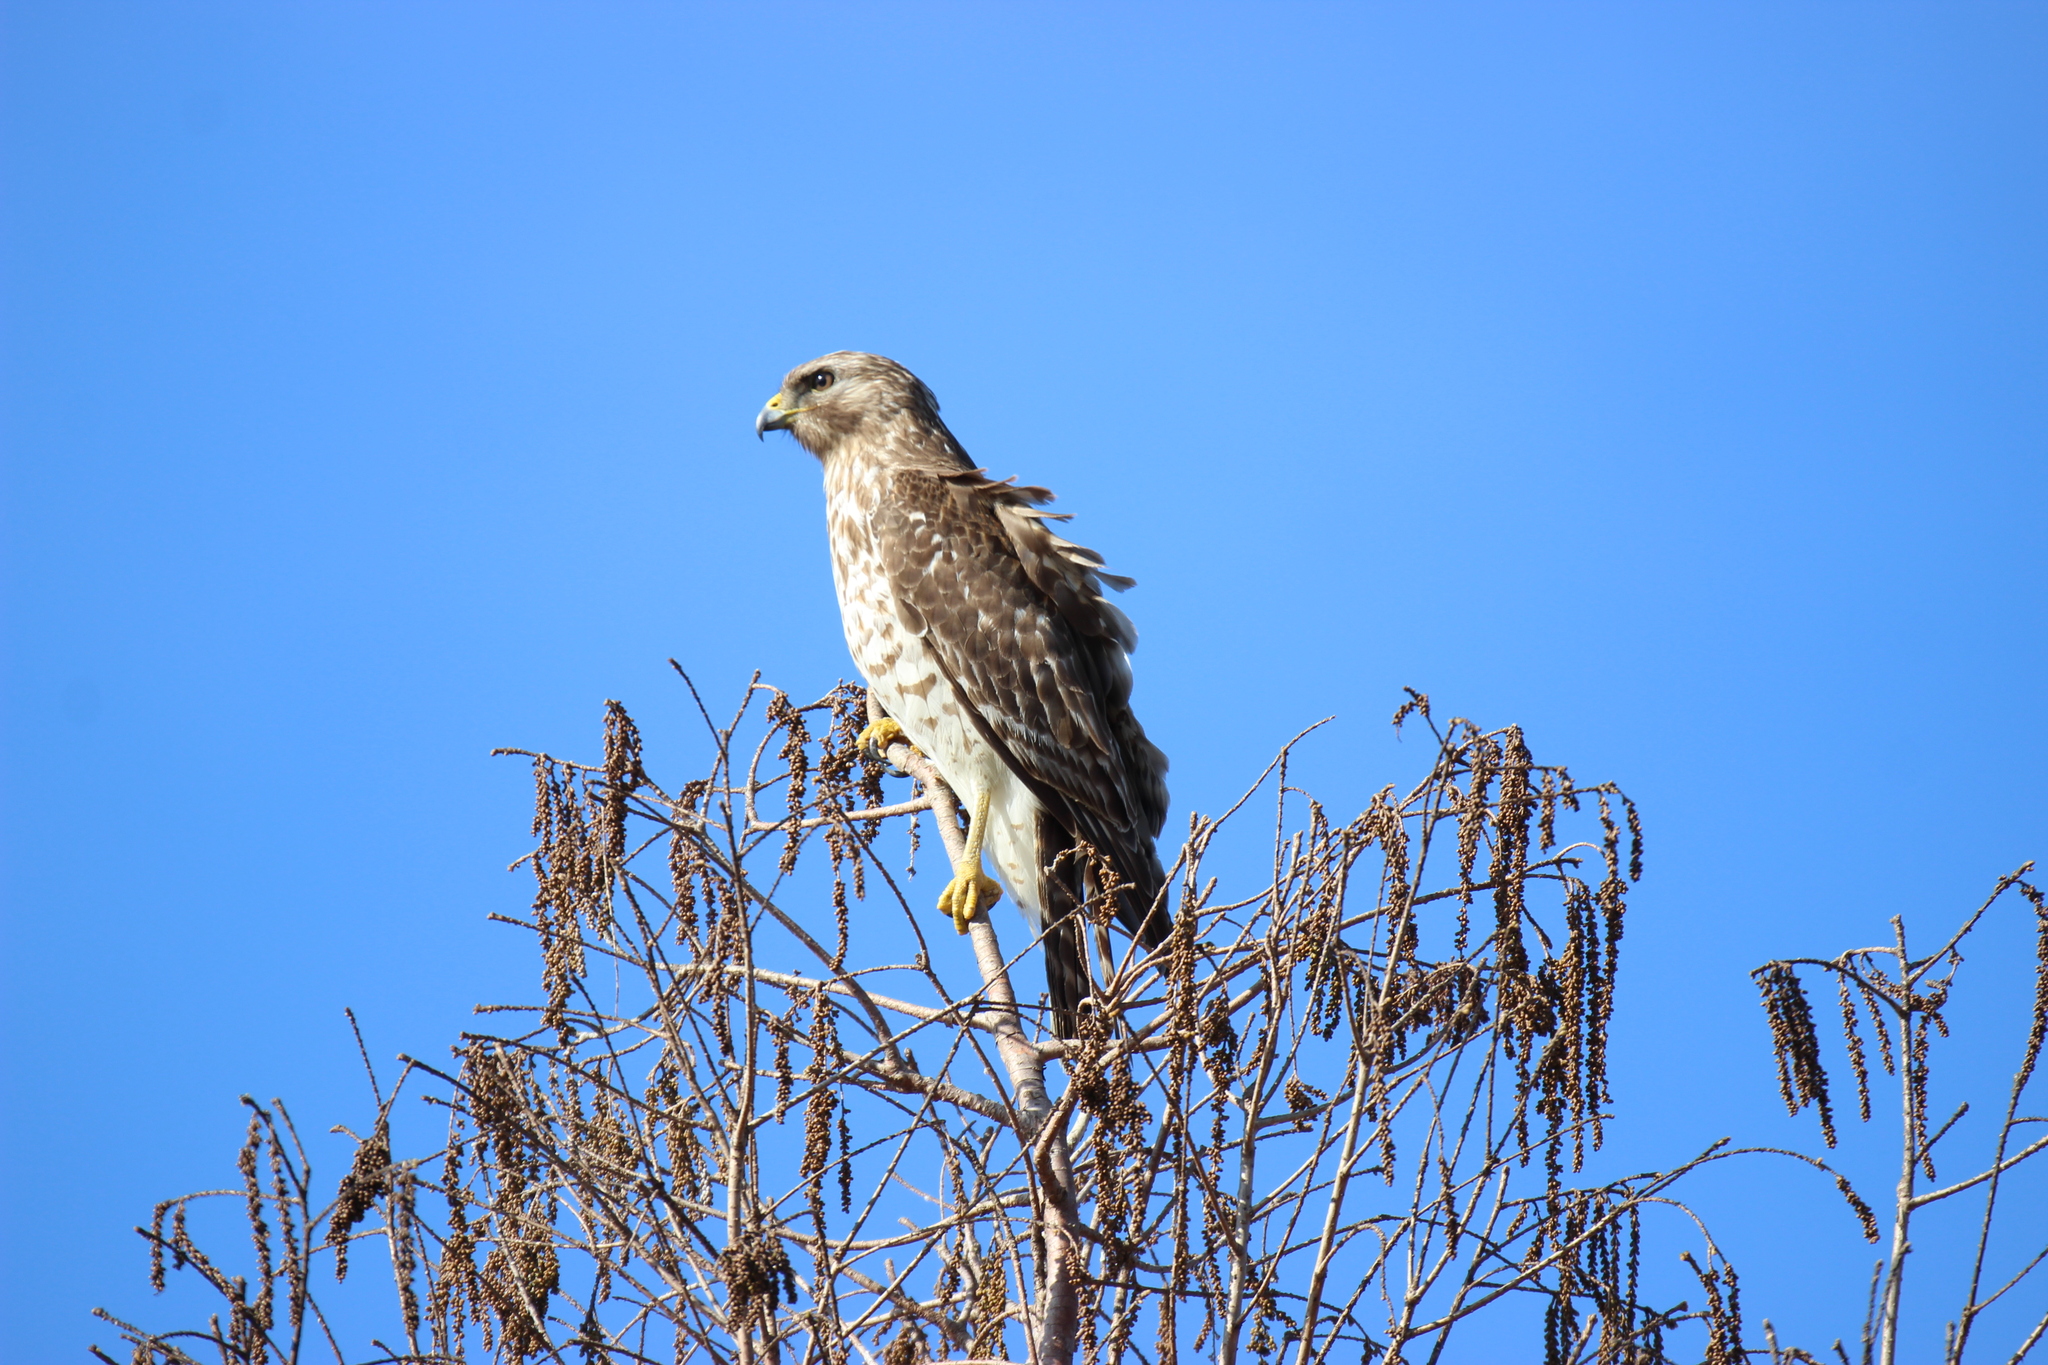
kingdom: Animalia
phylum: Chordata
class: Aves
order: Accipitriformes
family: Accipitridae
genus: Buteo
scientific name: Buteo lineatus
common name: Red-shouldered hawk
